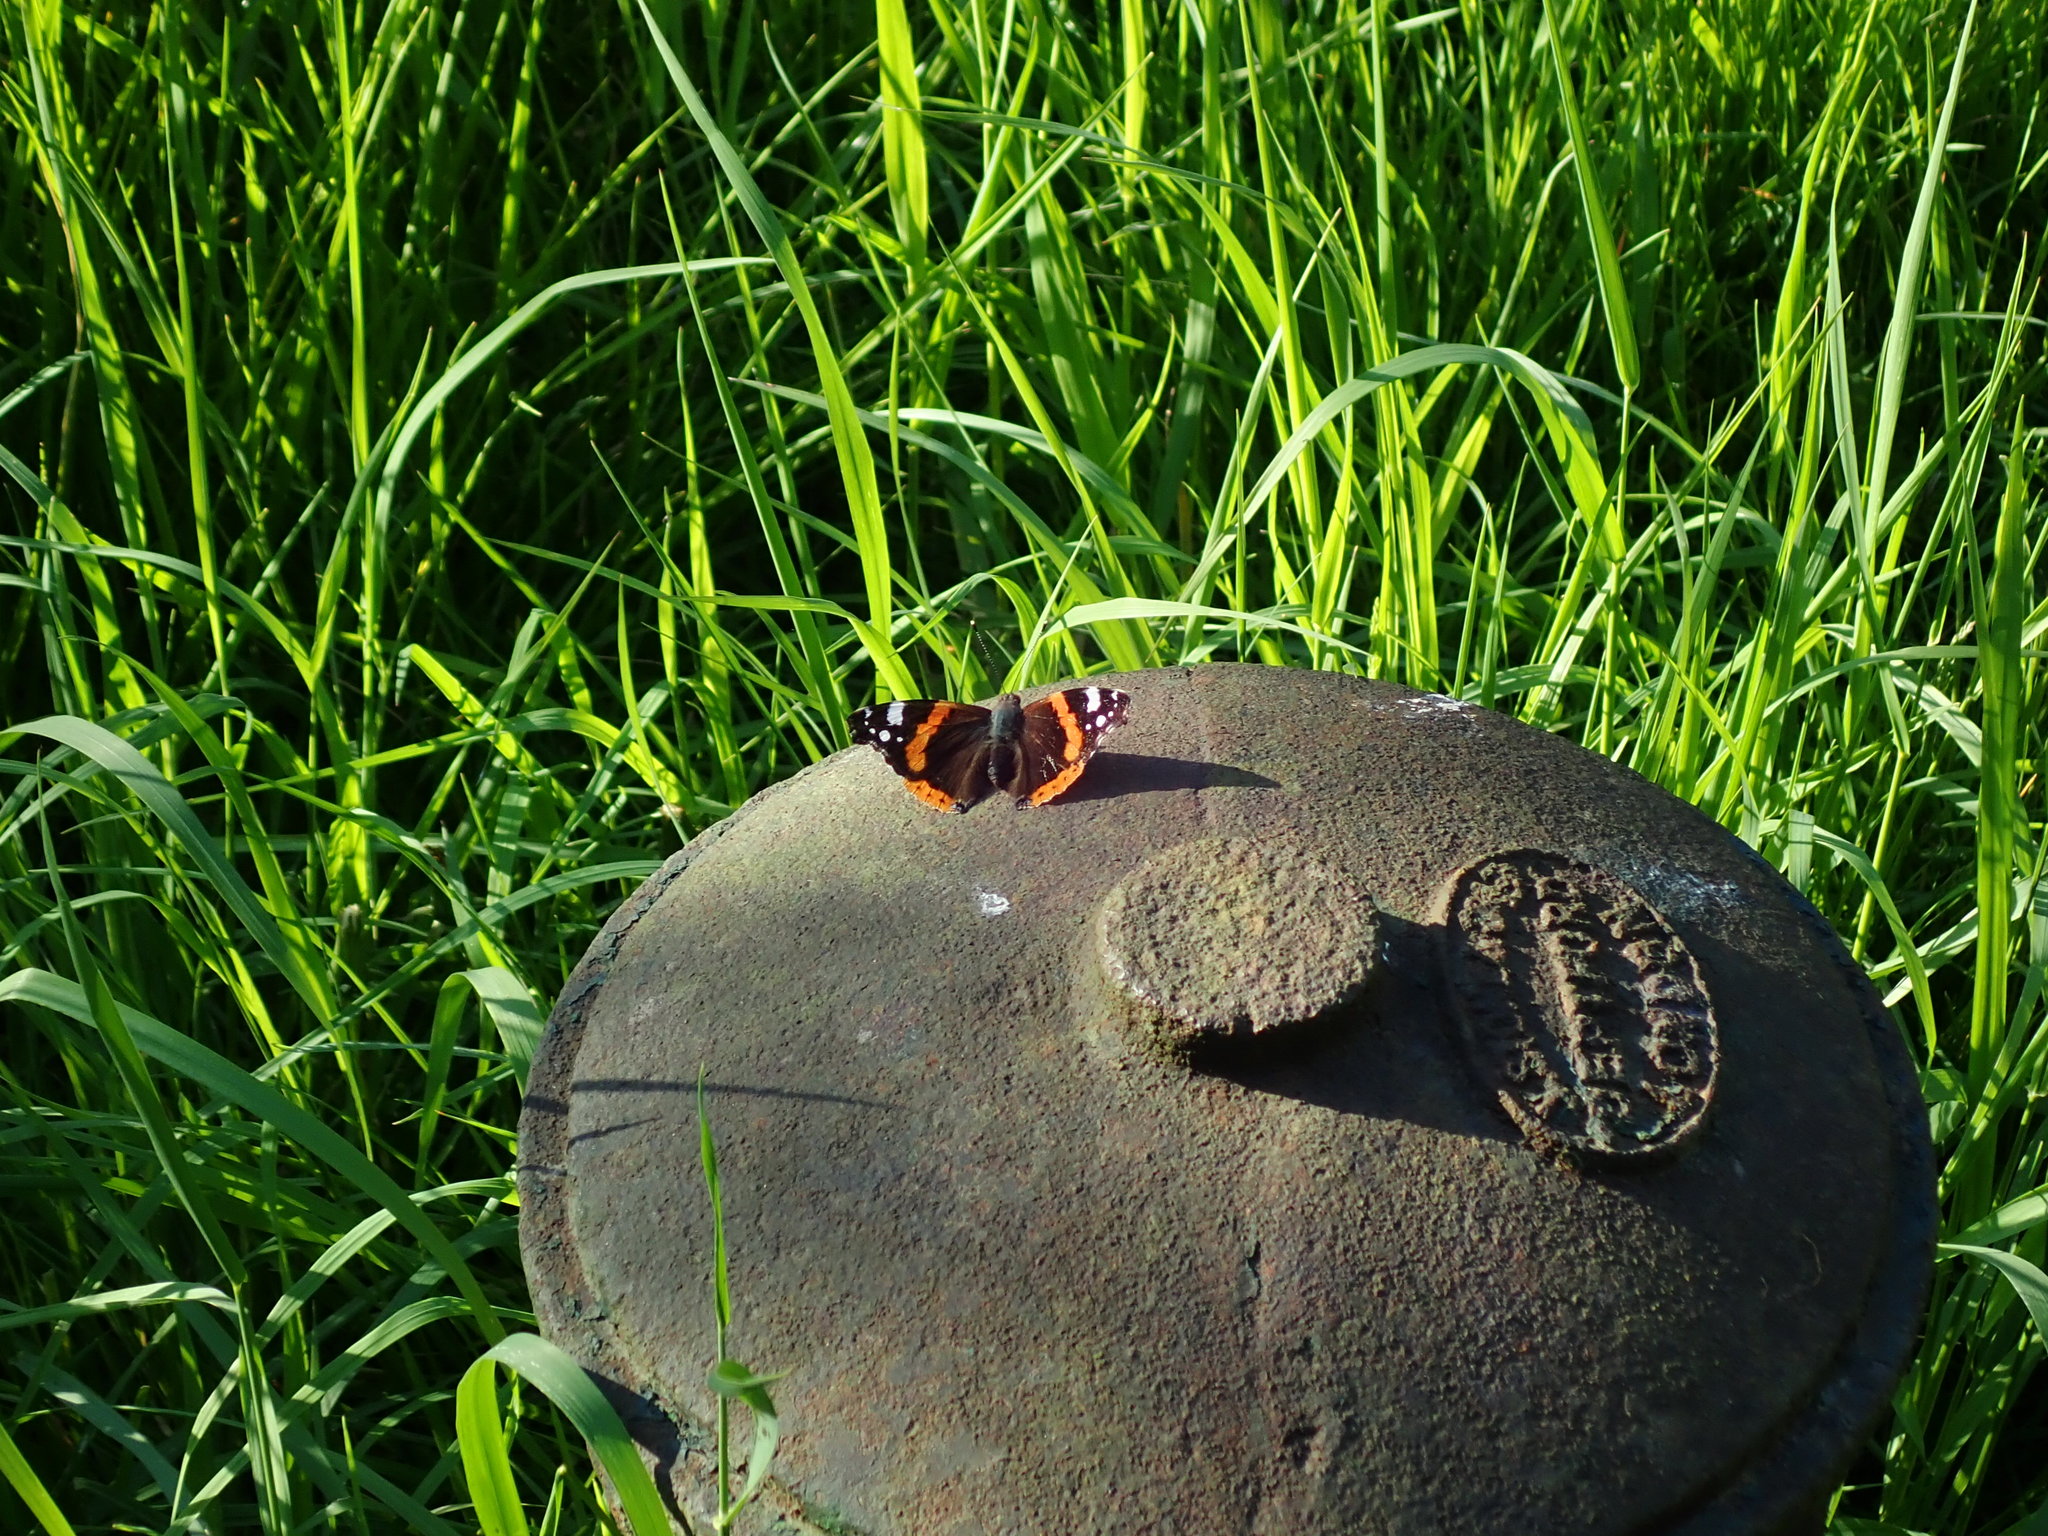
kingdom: Animalia
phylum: Arthropoda
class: Insecta
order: Lepidoptera
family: Nymphalidae
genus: Vanessa
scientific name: Vanessa atalanta
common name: Red admiral
